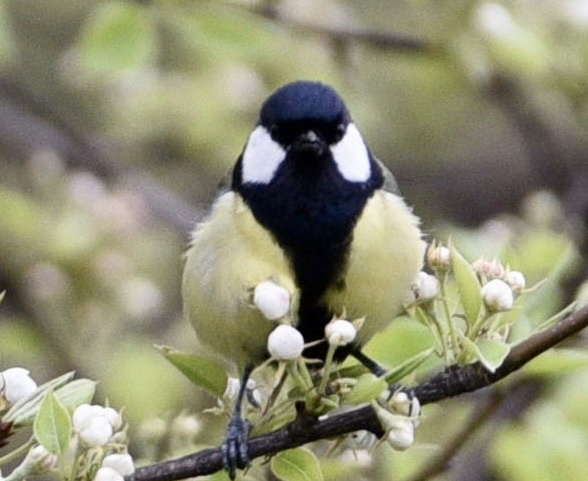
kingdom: Animalia
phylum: Chordata
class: Aves
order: Passeriformes
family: Paridae
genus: Parus
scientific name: Parus major
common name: Great tit
